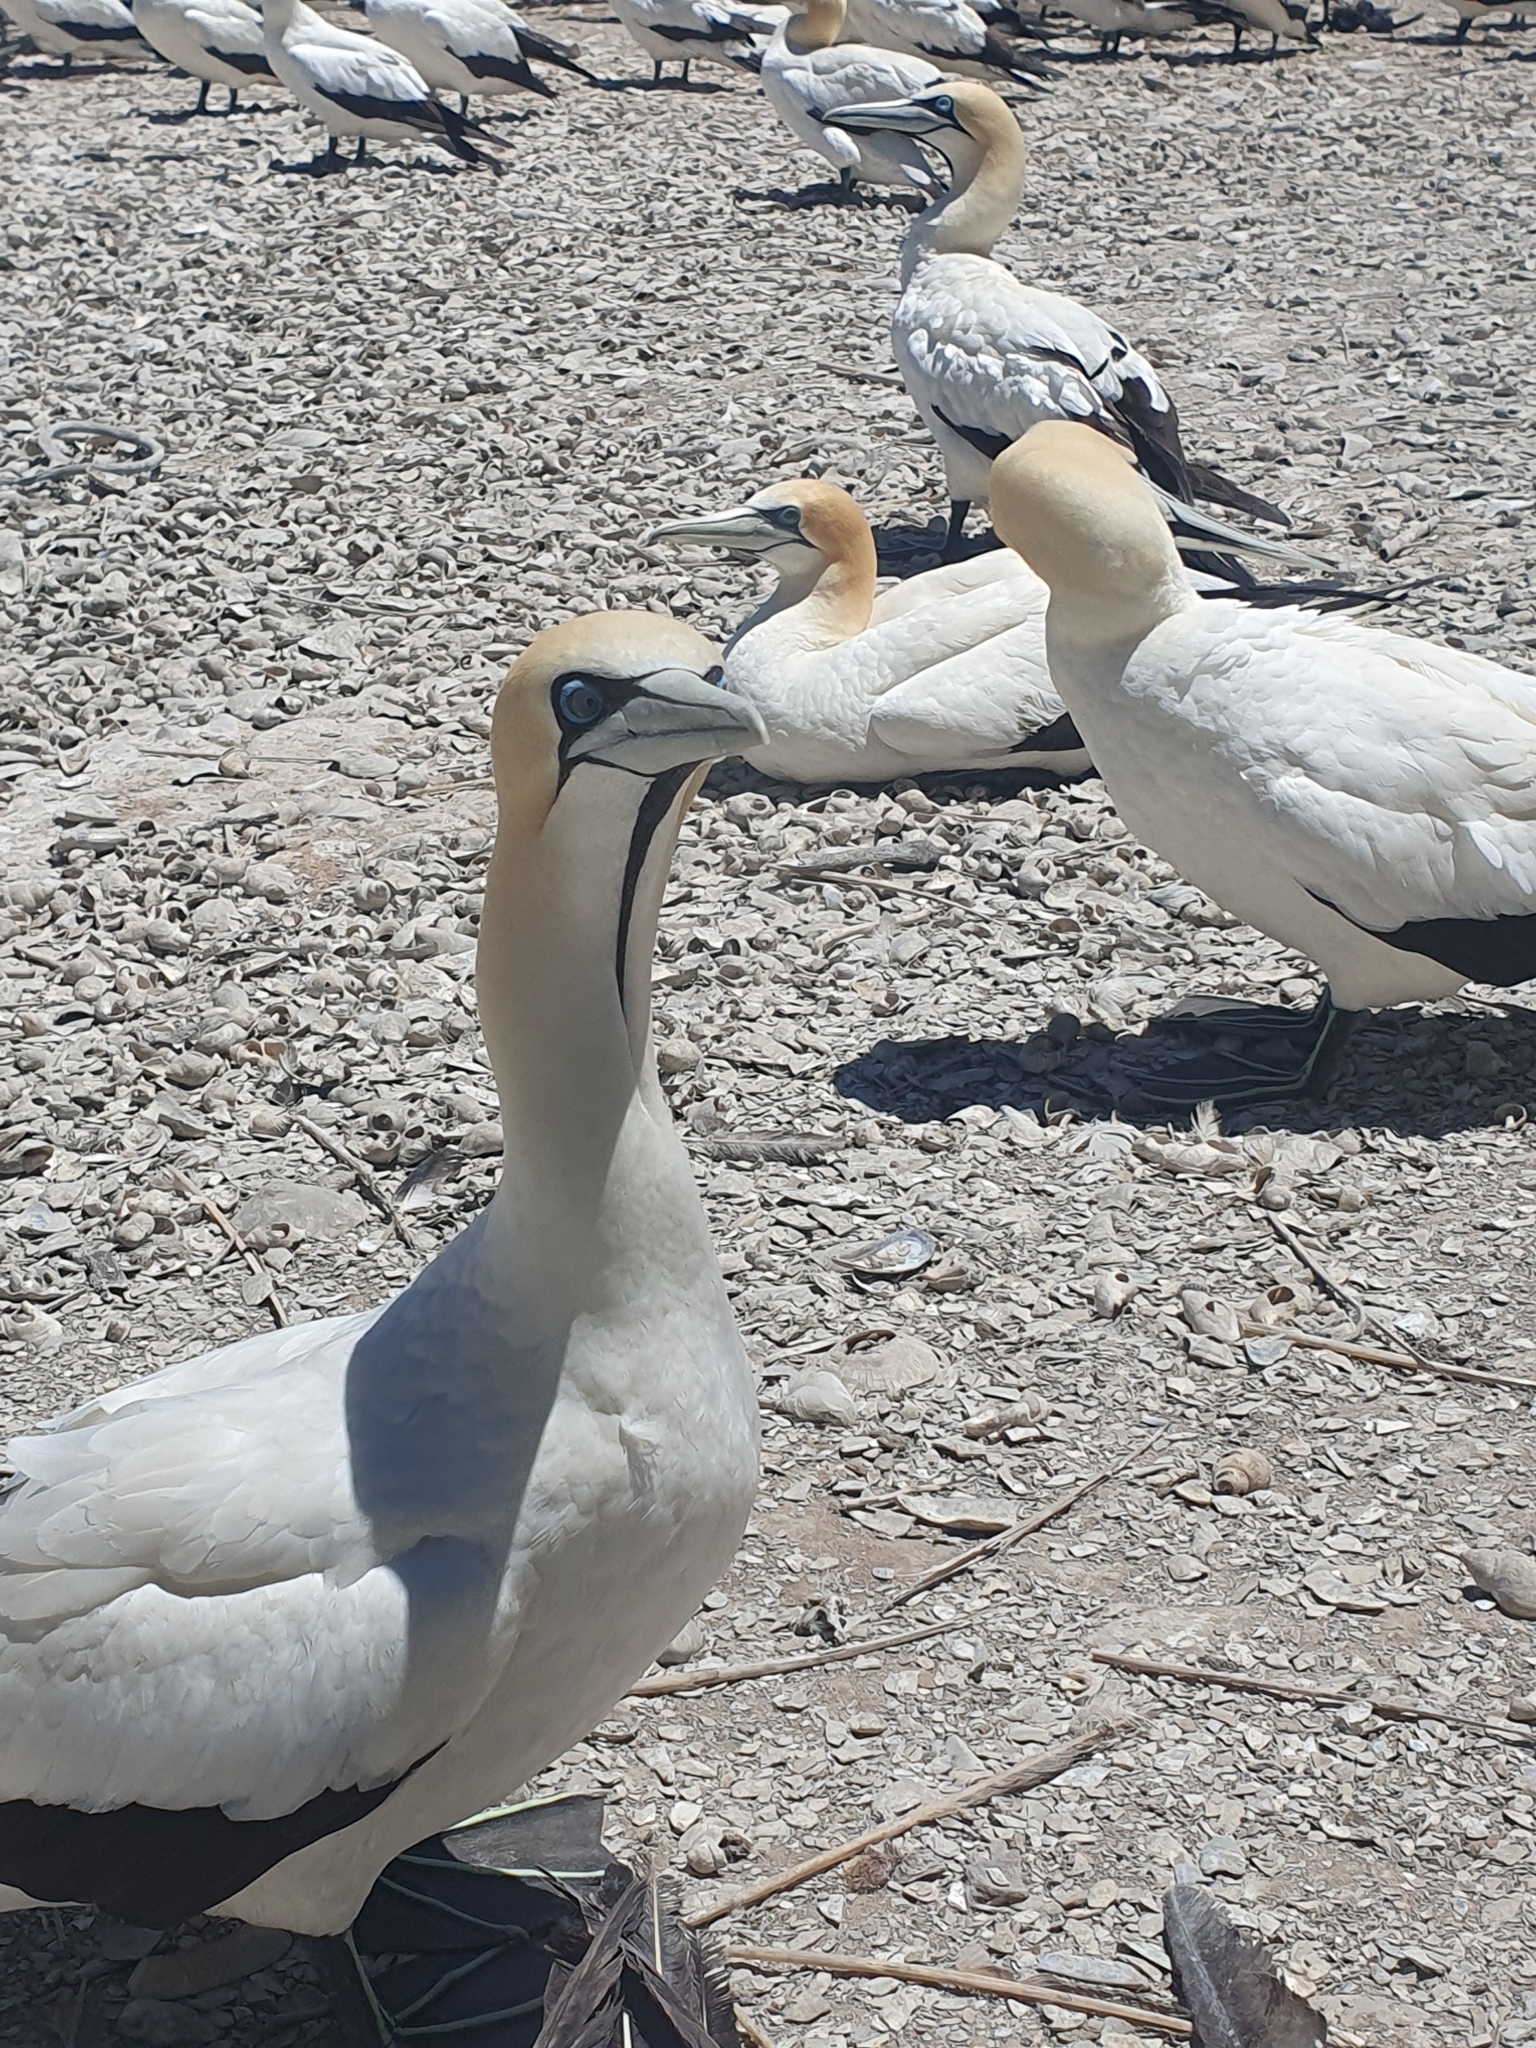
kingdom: Animalia
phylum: Chordata
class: Aves
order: Suliformes
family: Sulidae
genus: Morus
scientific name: Morus capensis
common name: Cape gannet
